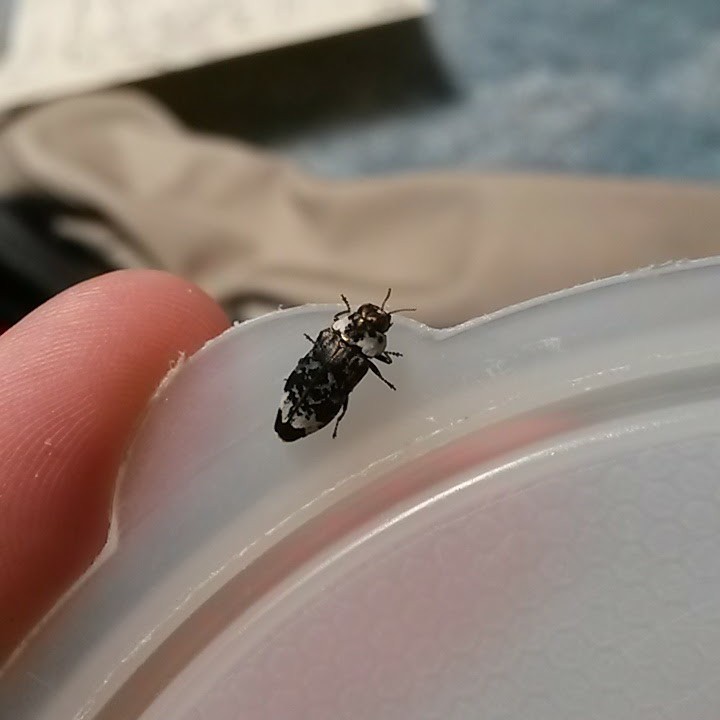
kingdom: Animalia
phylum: Arthropoda
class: Insecta
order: Coleoptera
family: Buprestidae
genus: Hypocisseis
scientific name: Hypocisseis suturalis
